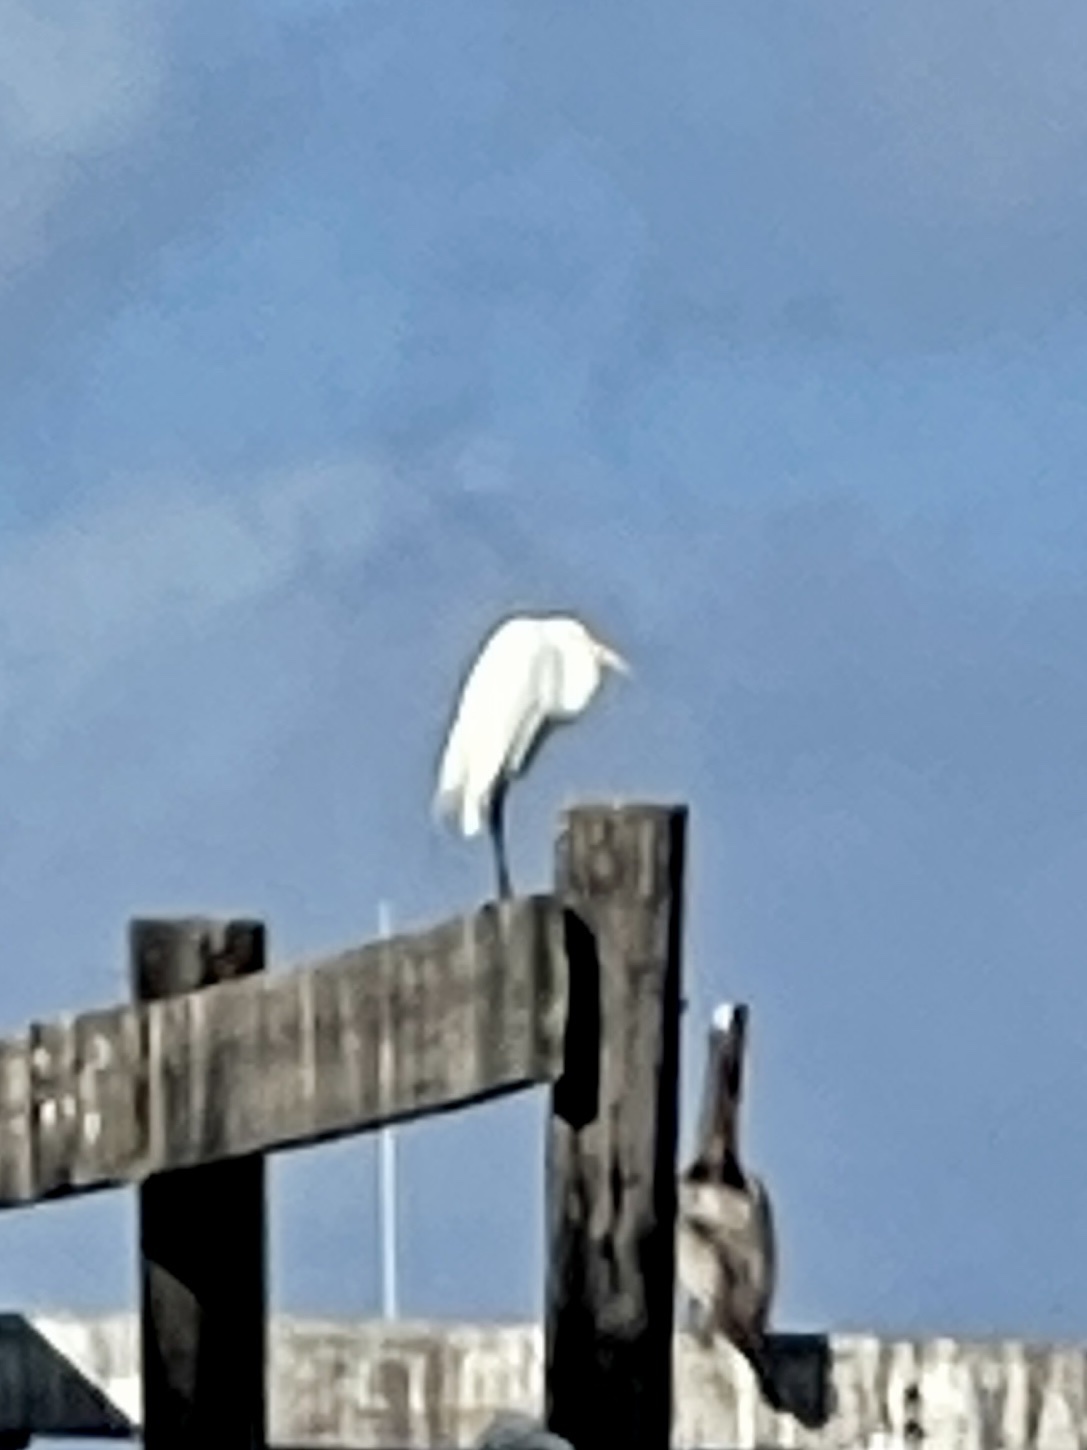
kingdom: Animalia
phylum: Chordata
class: Aves
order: Pelecaniformes
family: Ardeidae
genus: Ardea
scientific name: Ardea alba
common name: Great egret
